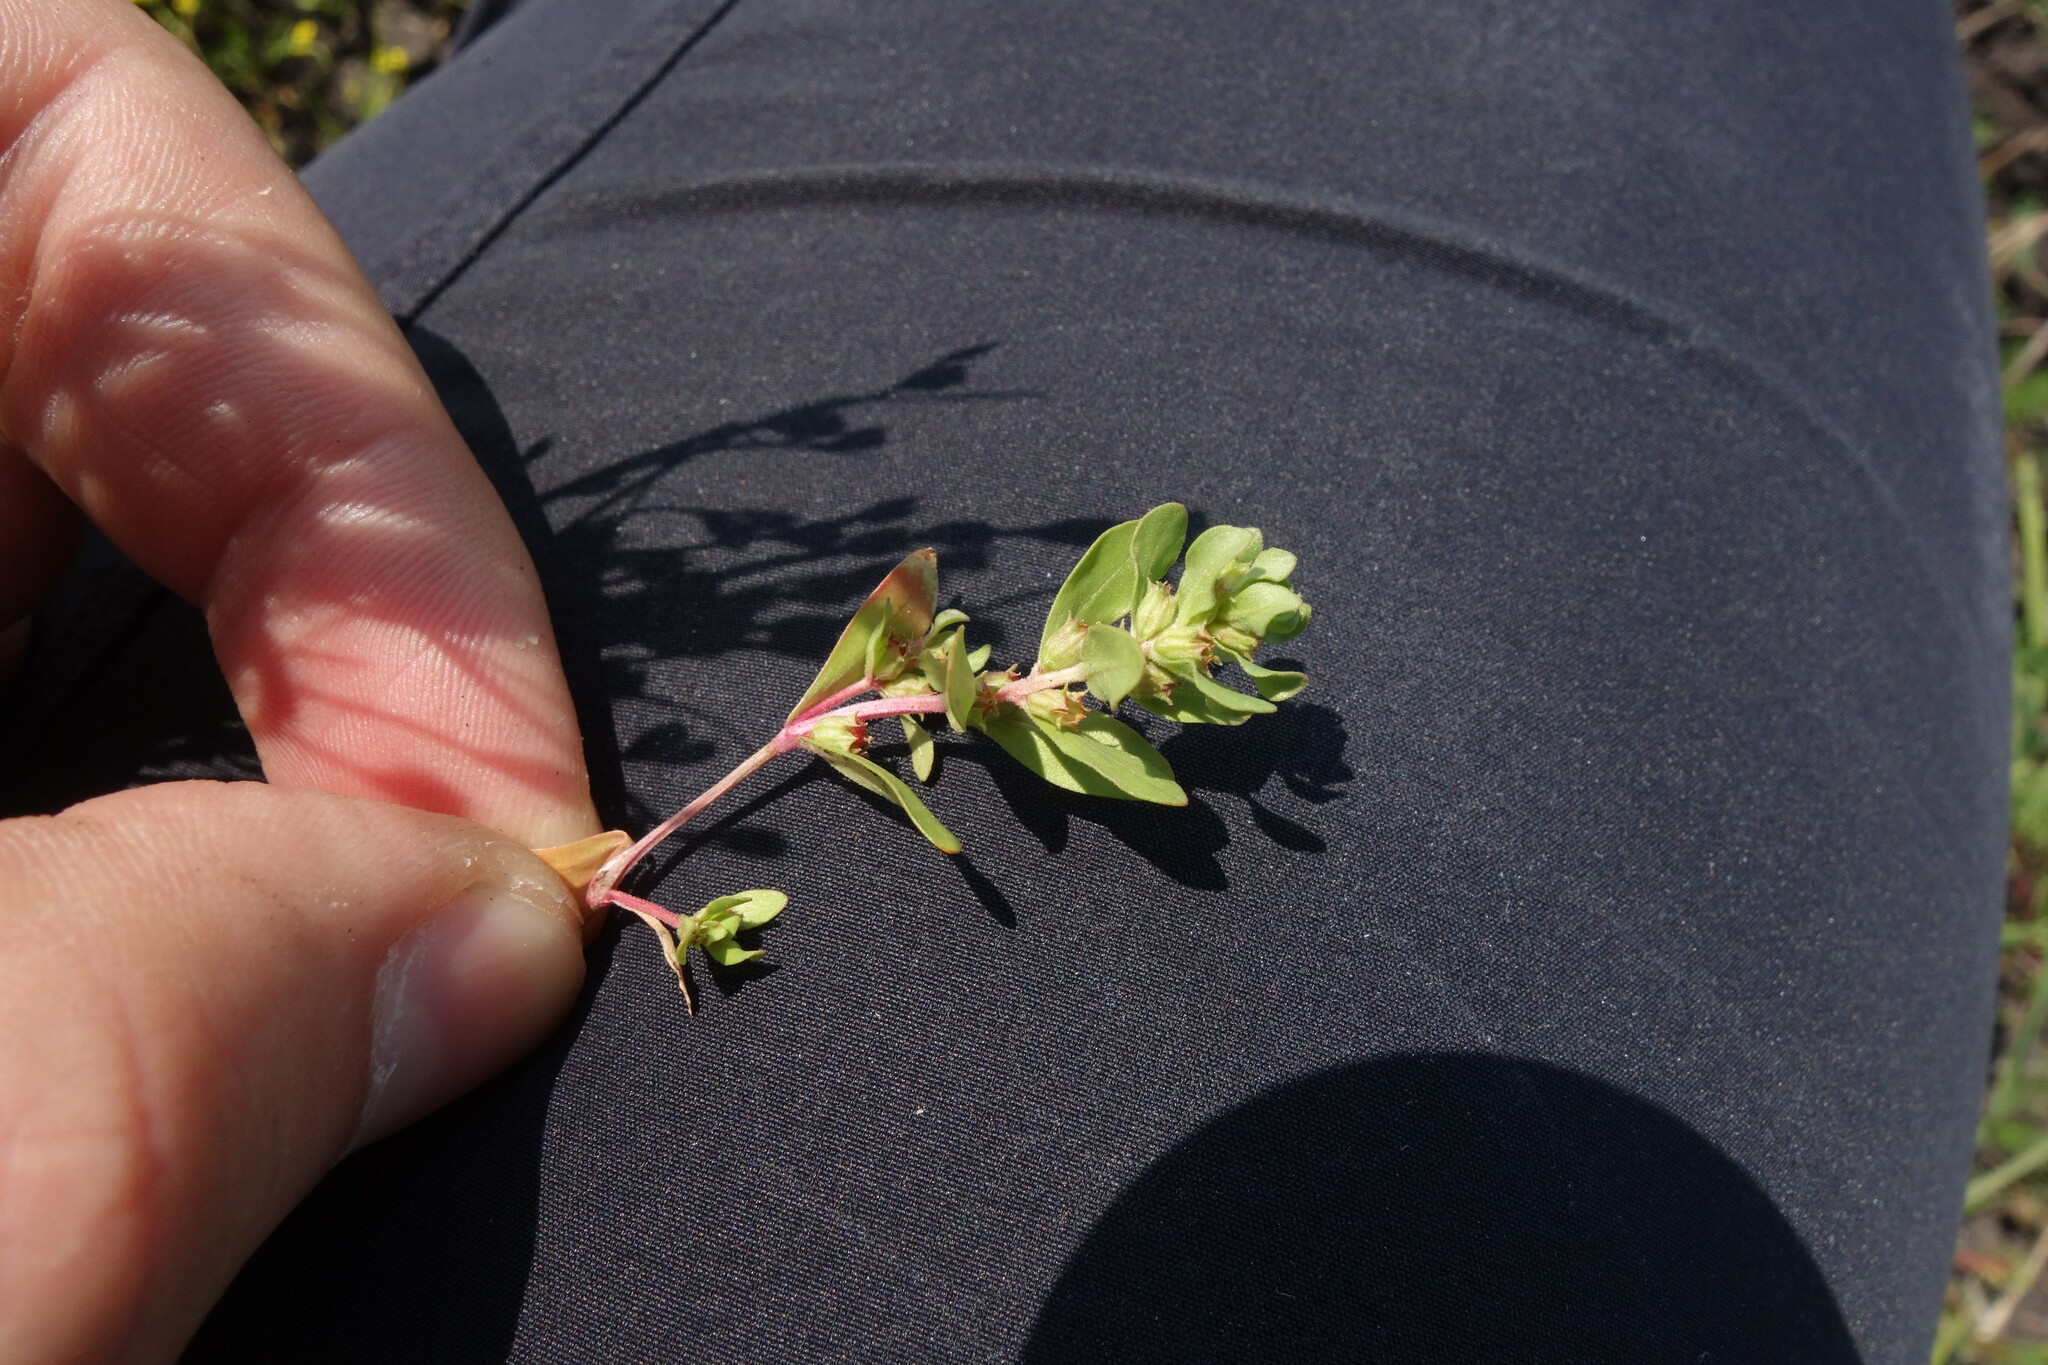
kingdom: Plantae
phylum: Tracheophyta
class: Magnoliopsida
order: Myrtales
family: Lythraceae
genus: Lythrum
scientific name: Lythrum borysthenicum
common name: Loosestrife
